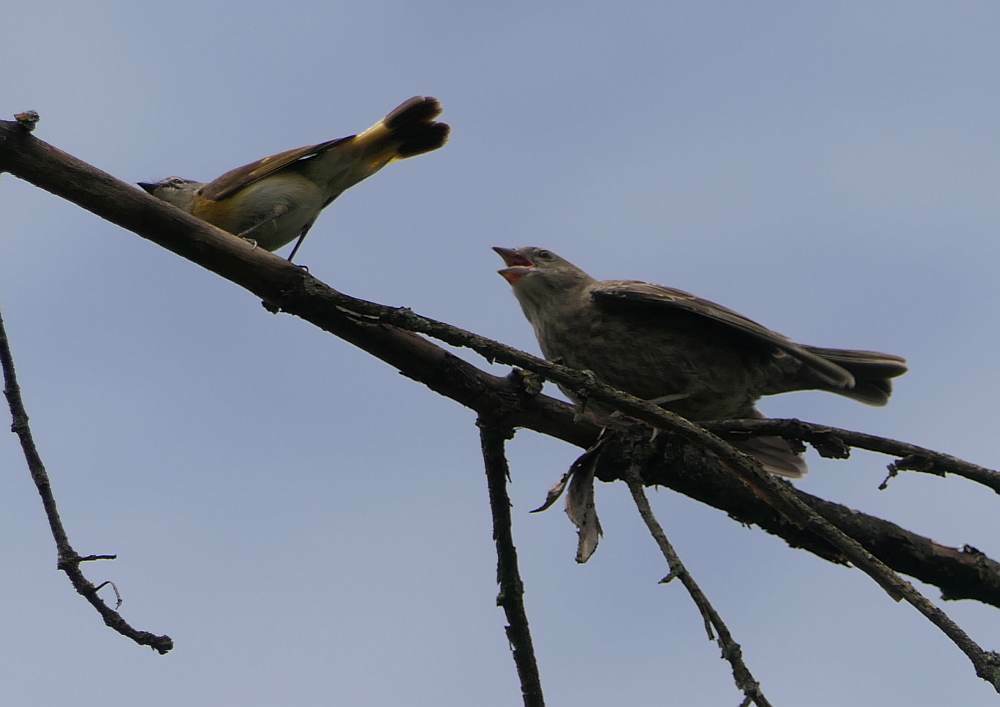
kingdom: Animalia
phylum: Chordata
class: Aves
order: Passeriformes
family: Icteridae
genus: Molothrus
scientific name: Molothrus ater
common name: Brown-headed cowbird
